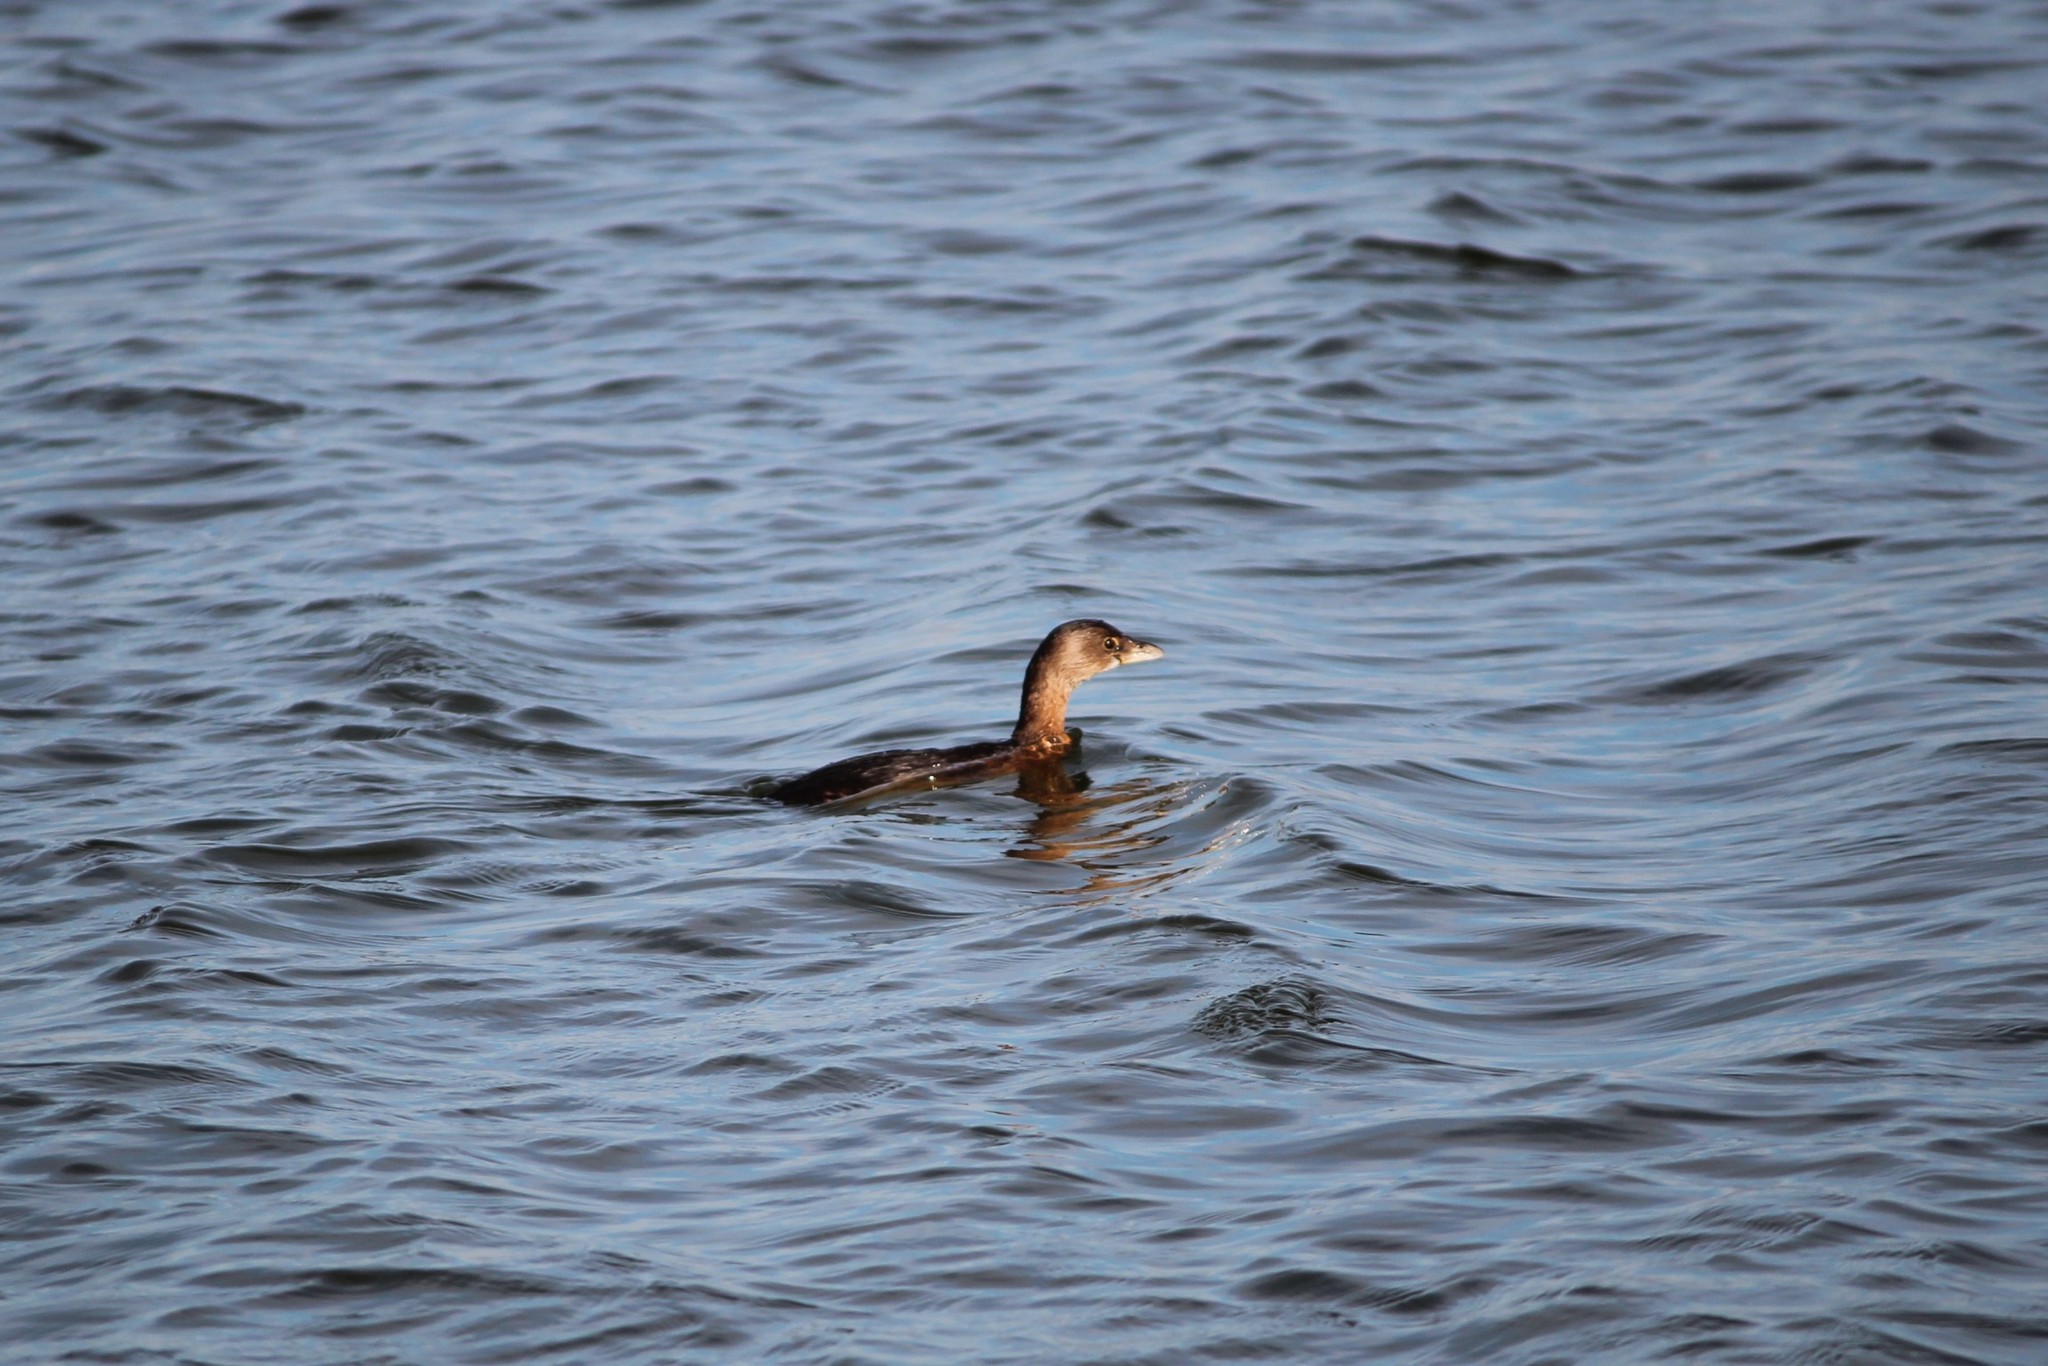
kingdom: Animalia
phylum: Chordata
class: Aves
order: Podicipediformes
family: Podicipedidae
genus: Podilymbus
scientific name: Podilymbus podiceps
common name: Pied-billed grebe
